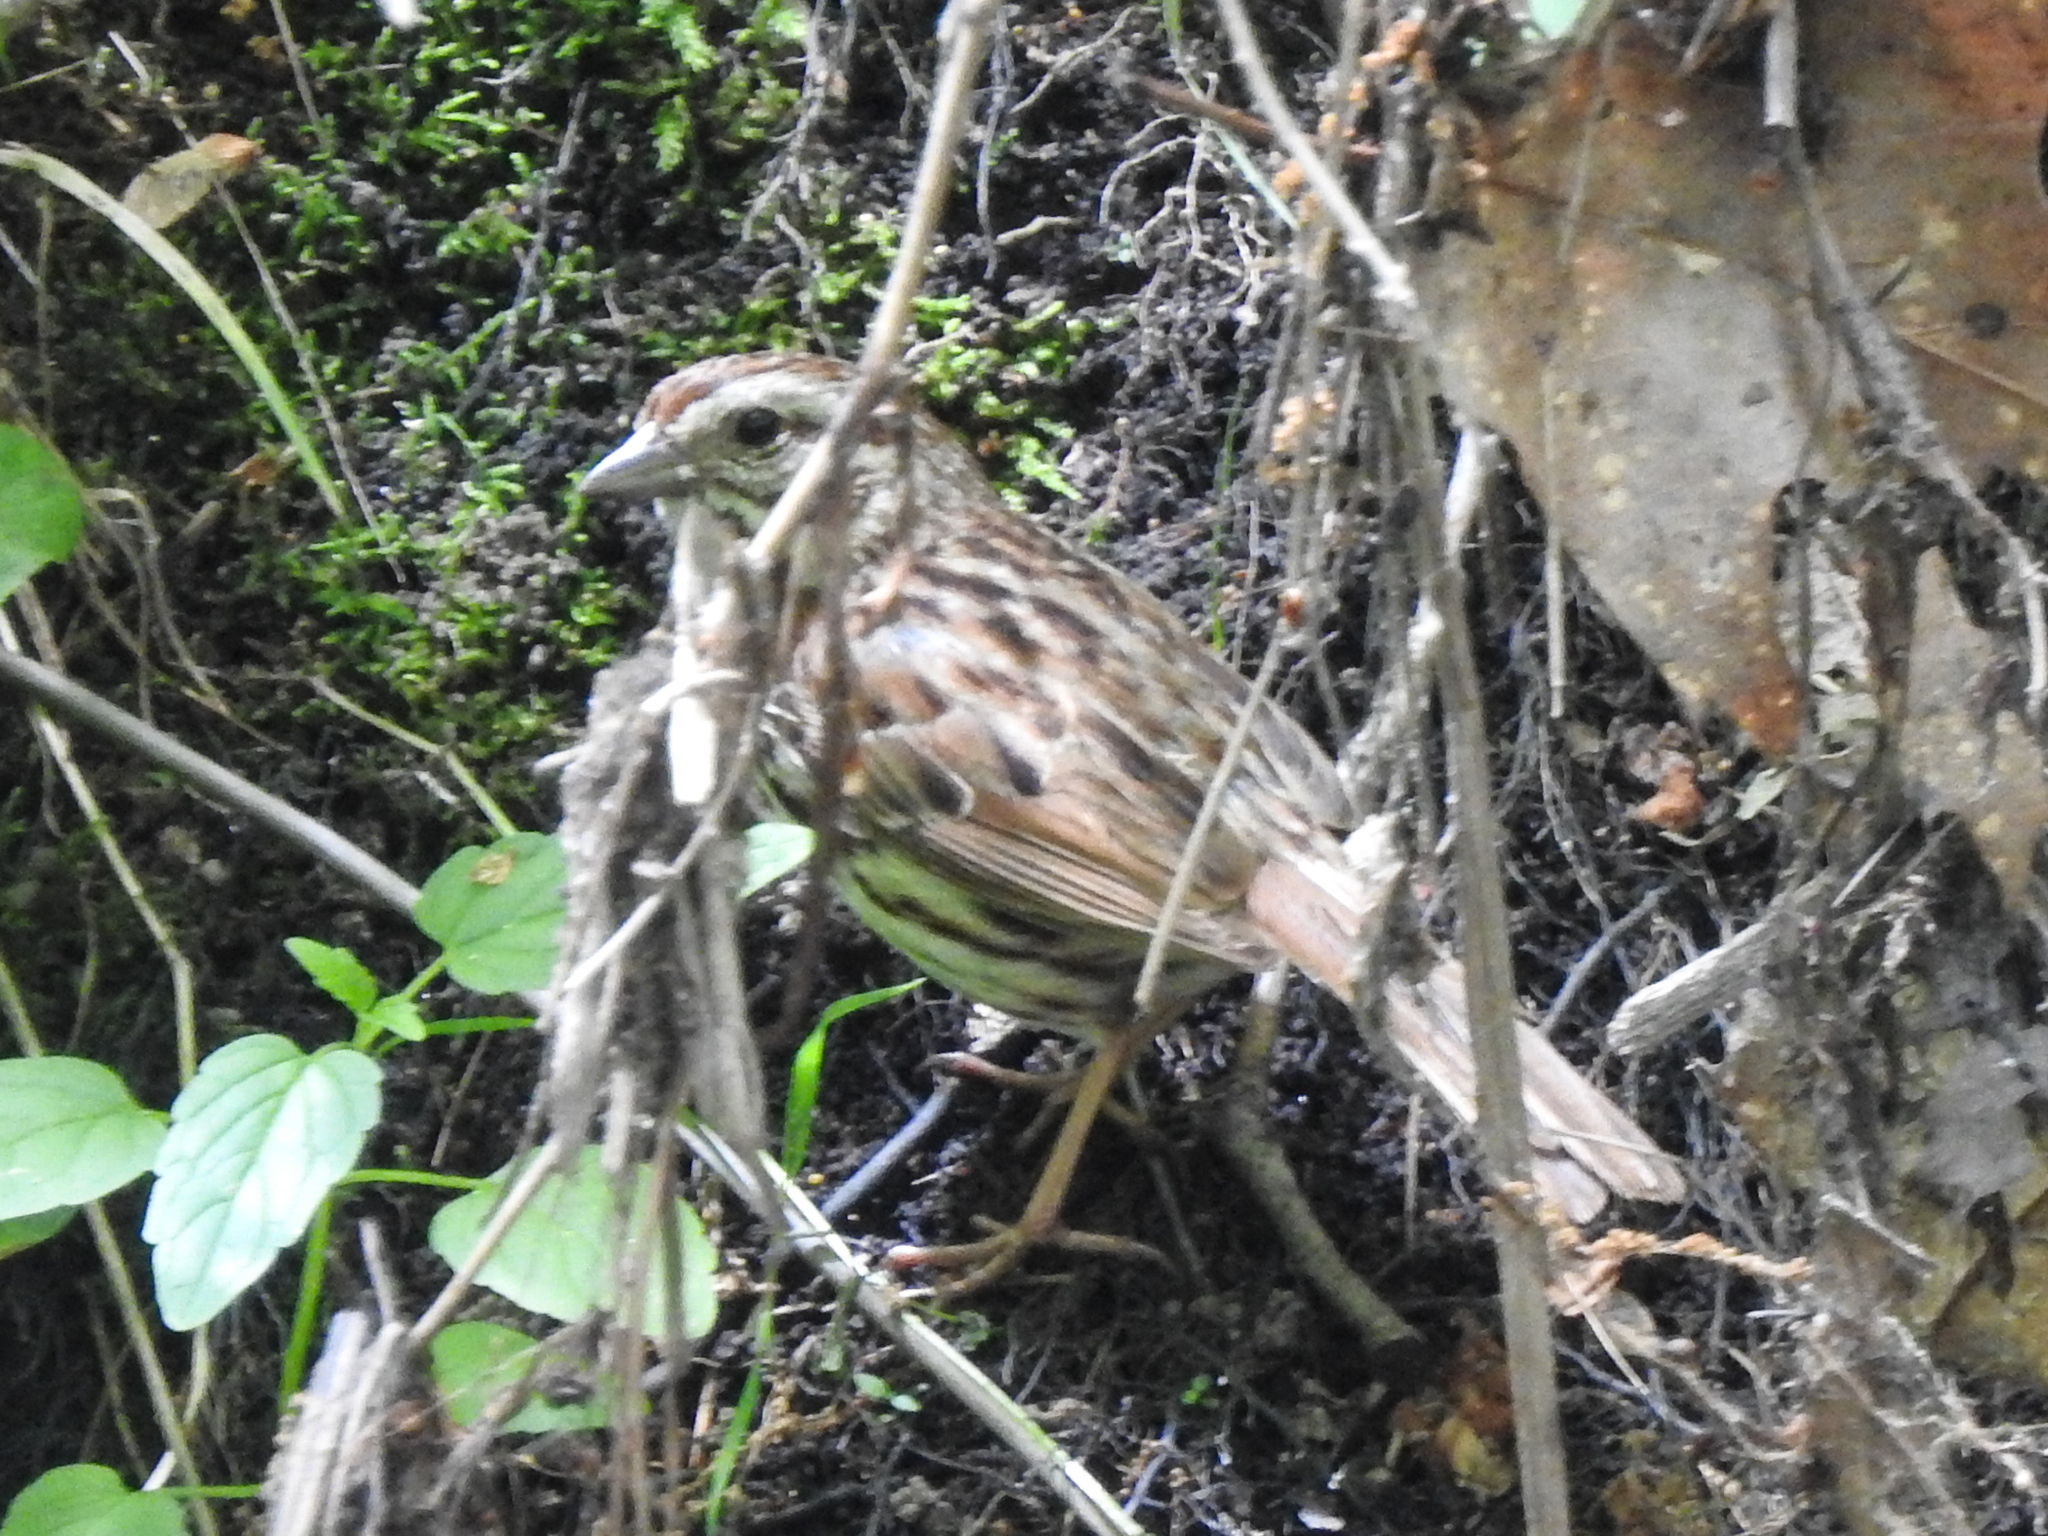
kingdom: Animalia
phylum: Chordata
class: Aves
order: Passeriformes
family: Passerellidae
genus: Melospiza
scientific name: Melospiza melodia
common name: Song sparrow
